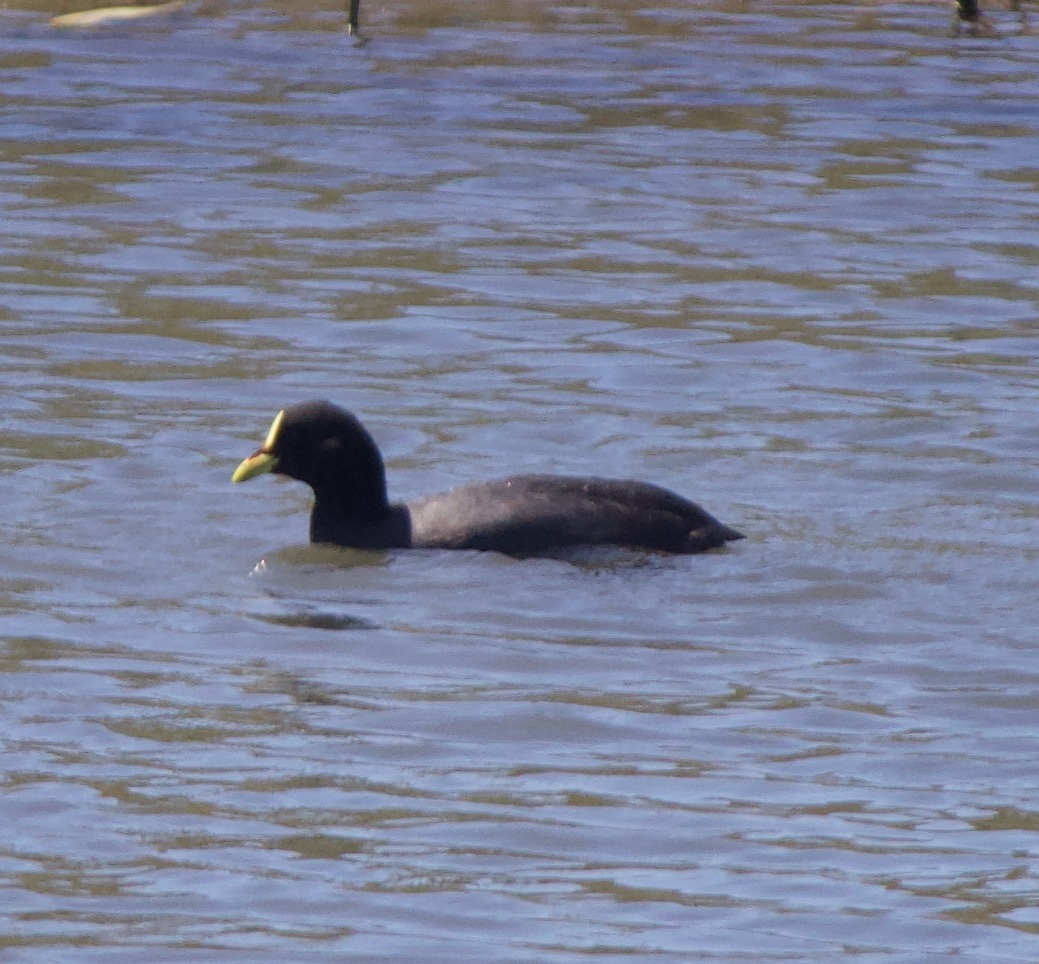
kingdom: Animalia
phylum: Chordata
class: Aves
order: Gruiformes
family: Rallidae
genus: Fulica
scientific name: Fulica armillata
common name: Red-gartered coot
